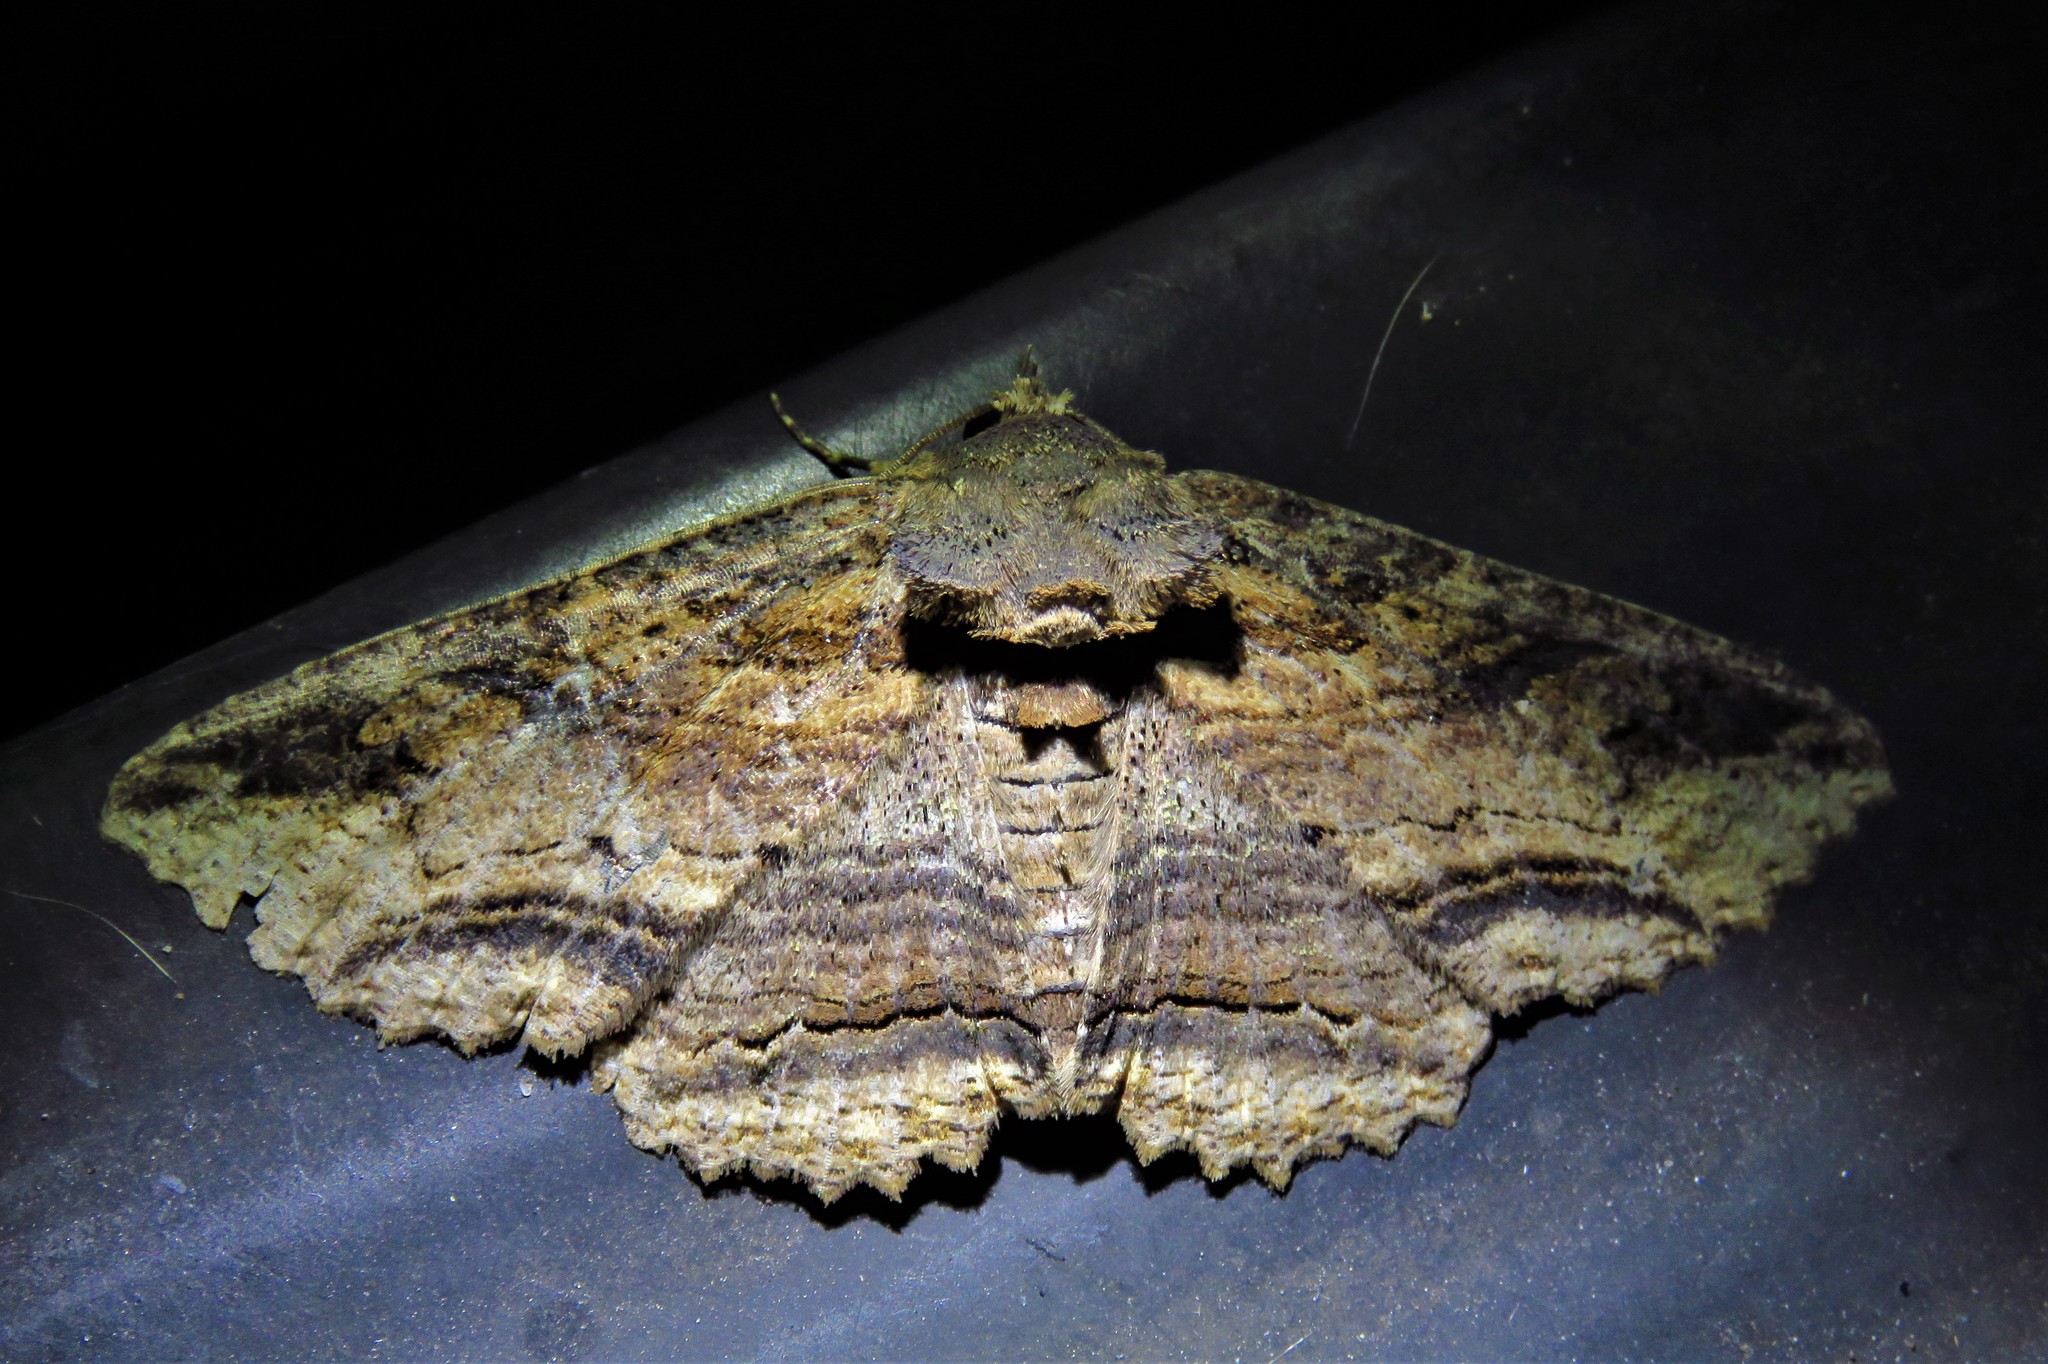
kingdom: Animalia
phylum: Arthropoda
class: Insecta
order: Lepidoptera
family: Erebidae
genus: Zale
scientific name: Zale lunata
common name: Lunate zale moth
